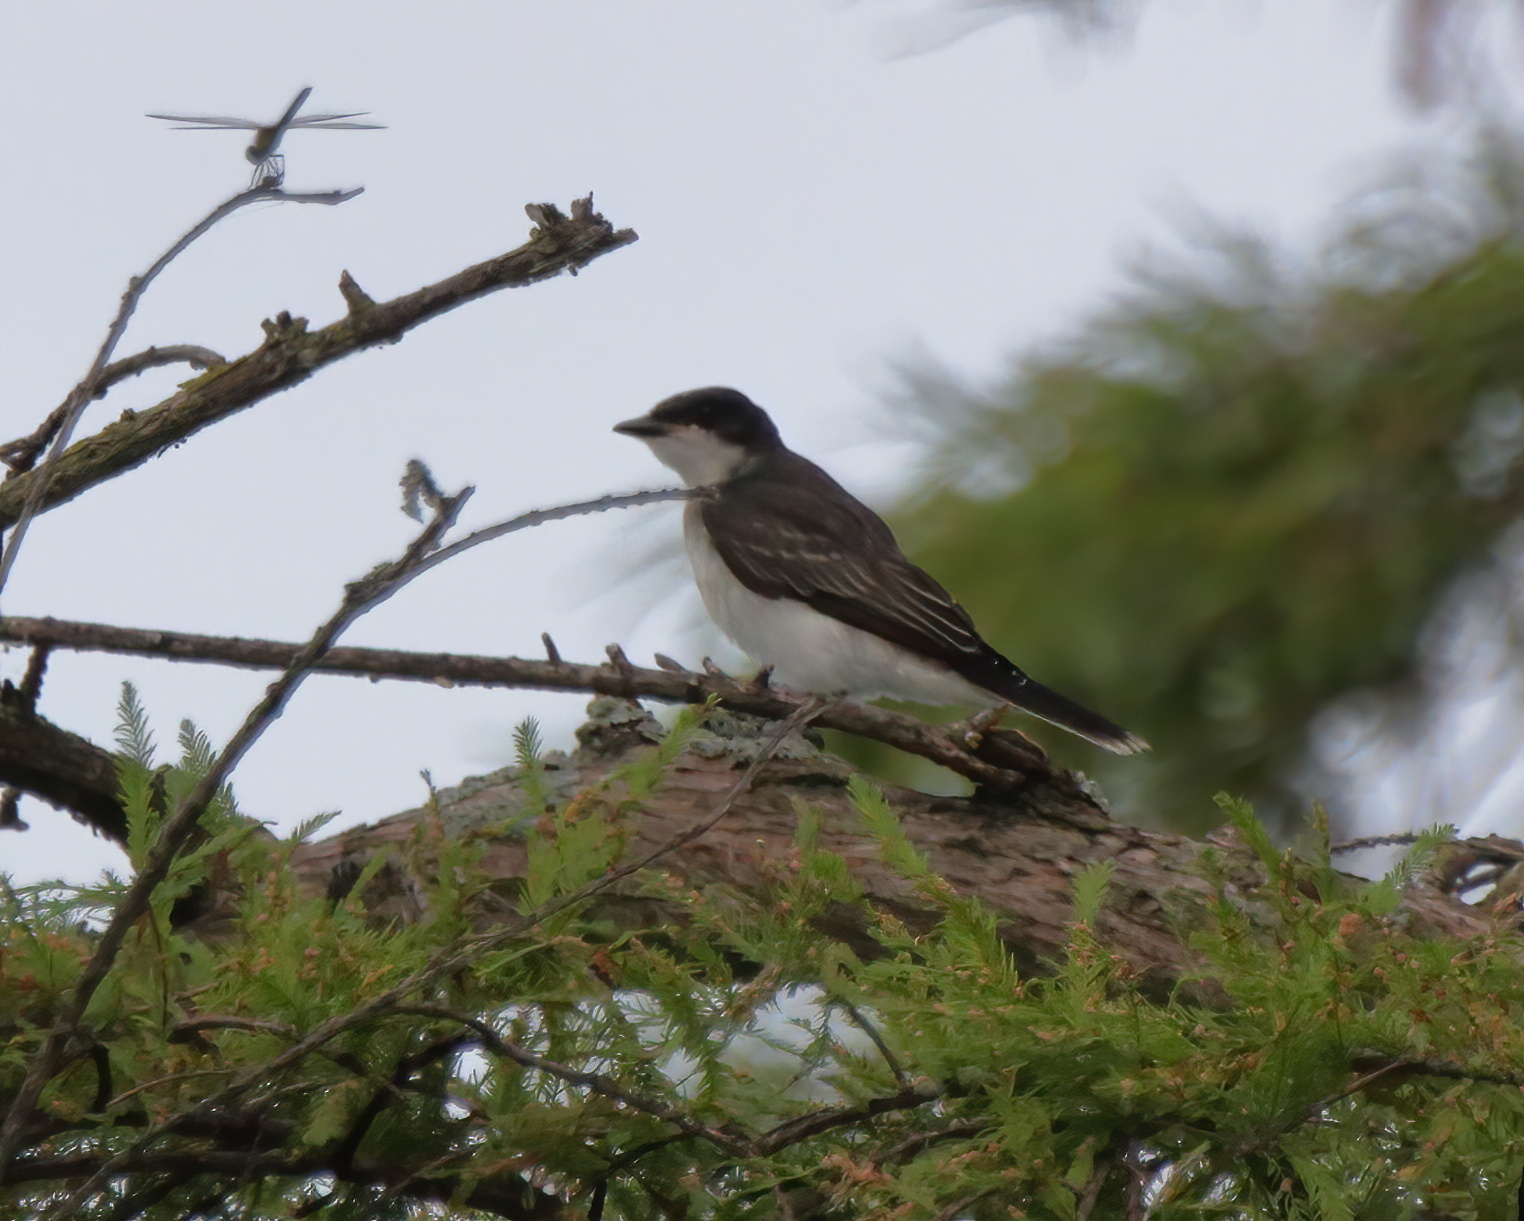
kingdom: Animalia
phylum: Chordata
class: Aves
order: Passeriformes
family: Tyrannidae
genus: Tyrannus
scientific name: Tyrannus tyrannus
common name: Eastern kingbird
